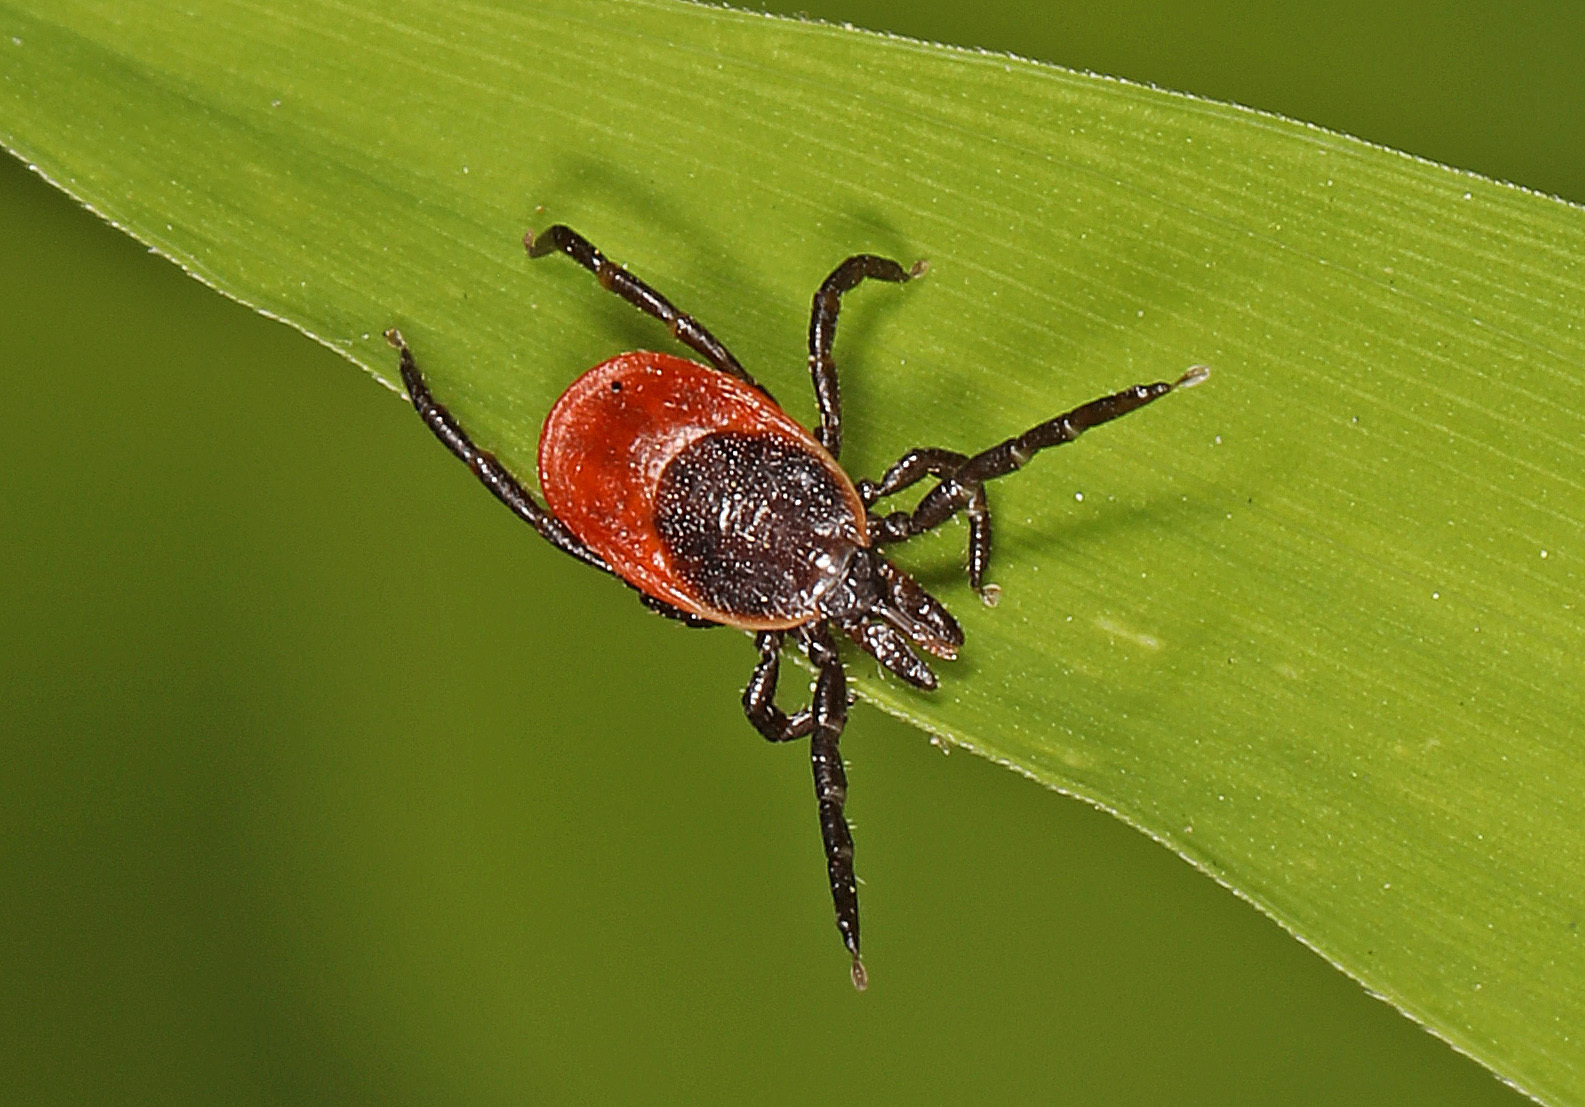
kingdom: Animalia
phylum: Arthropoda
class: Arachnida
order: Ixodida
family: Ixodidae
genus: Ixodes
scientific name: Ixodes scapularis
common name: Black legged tick
